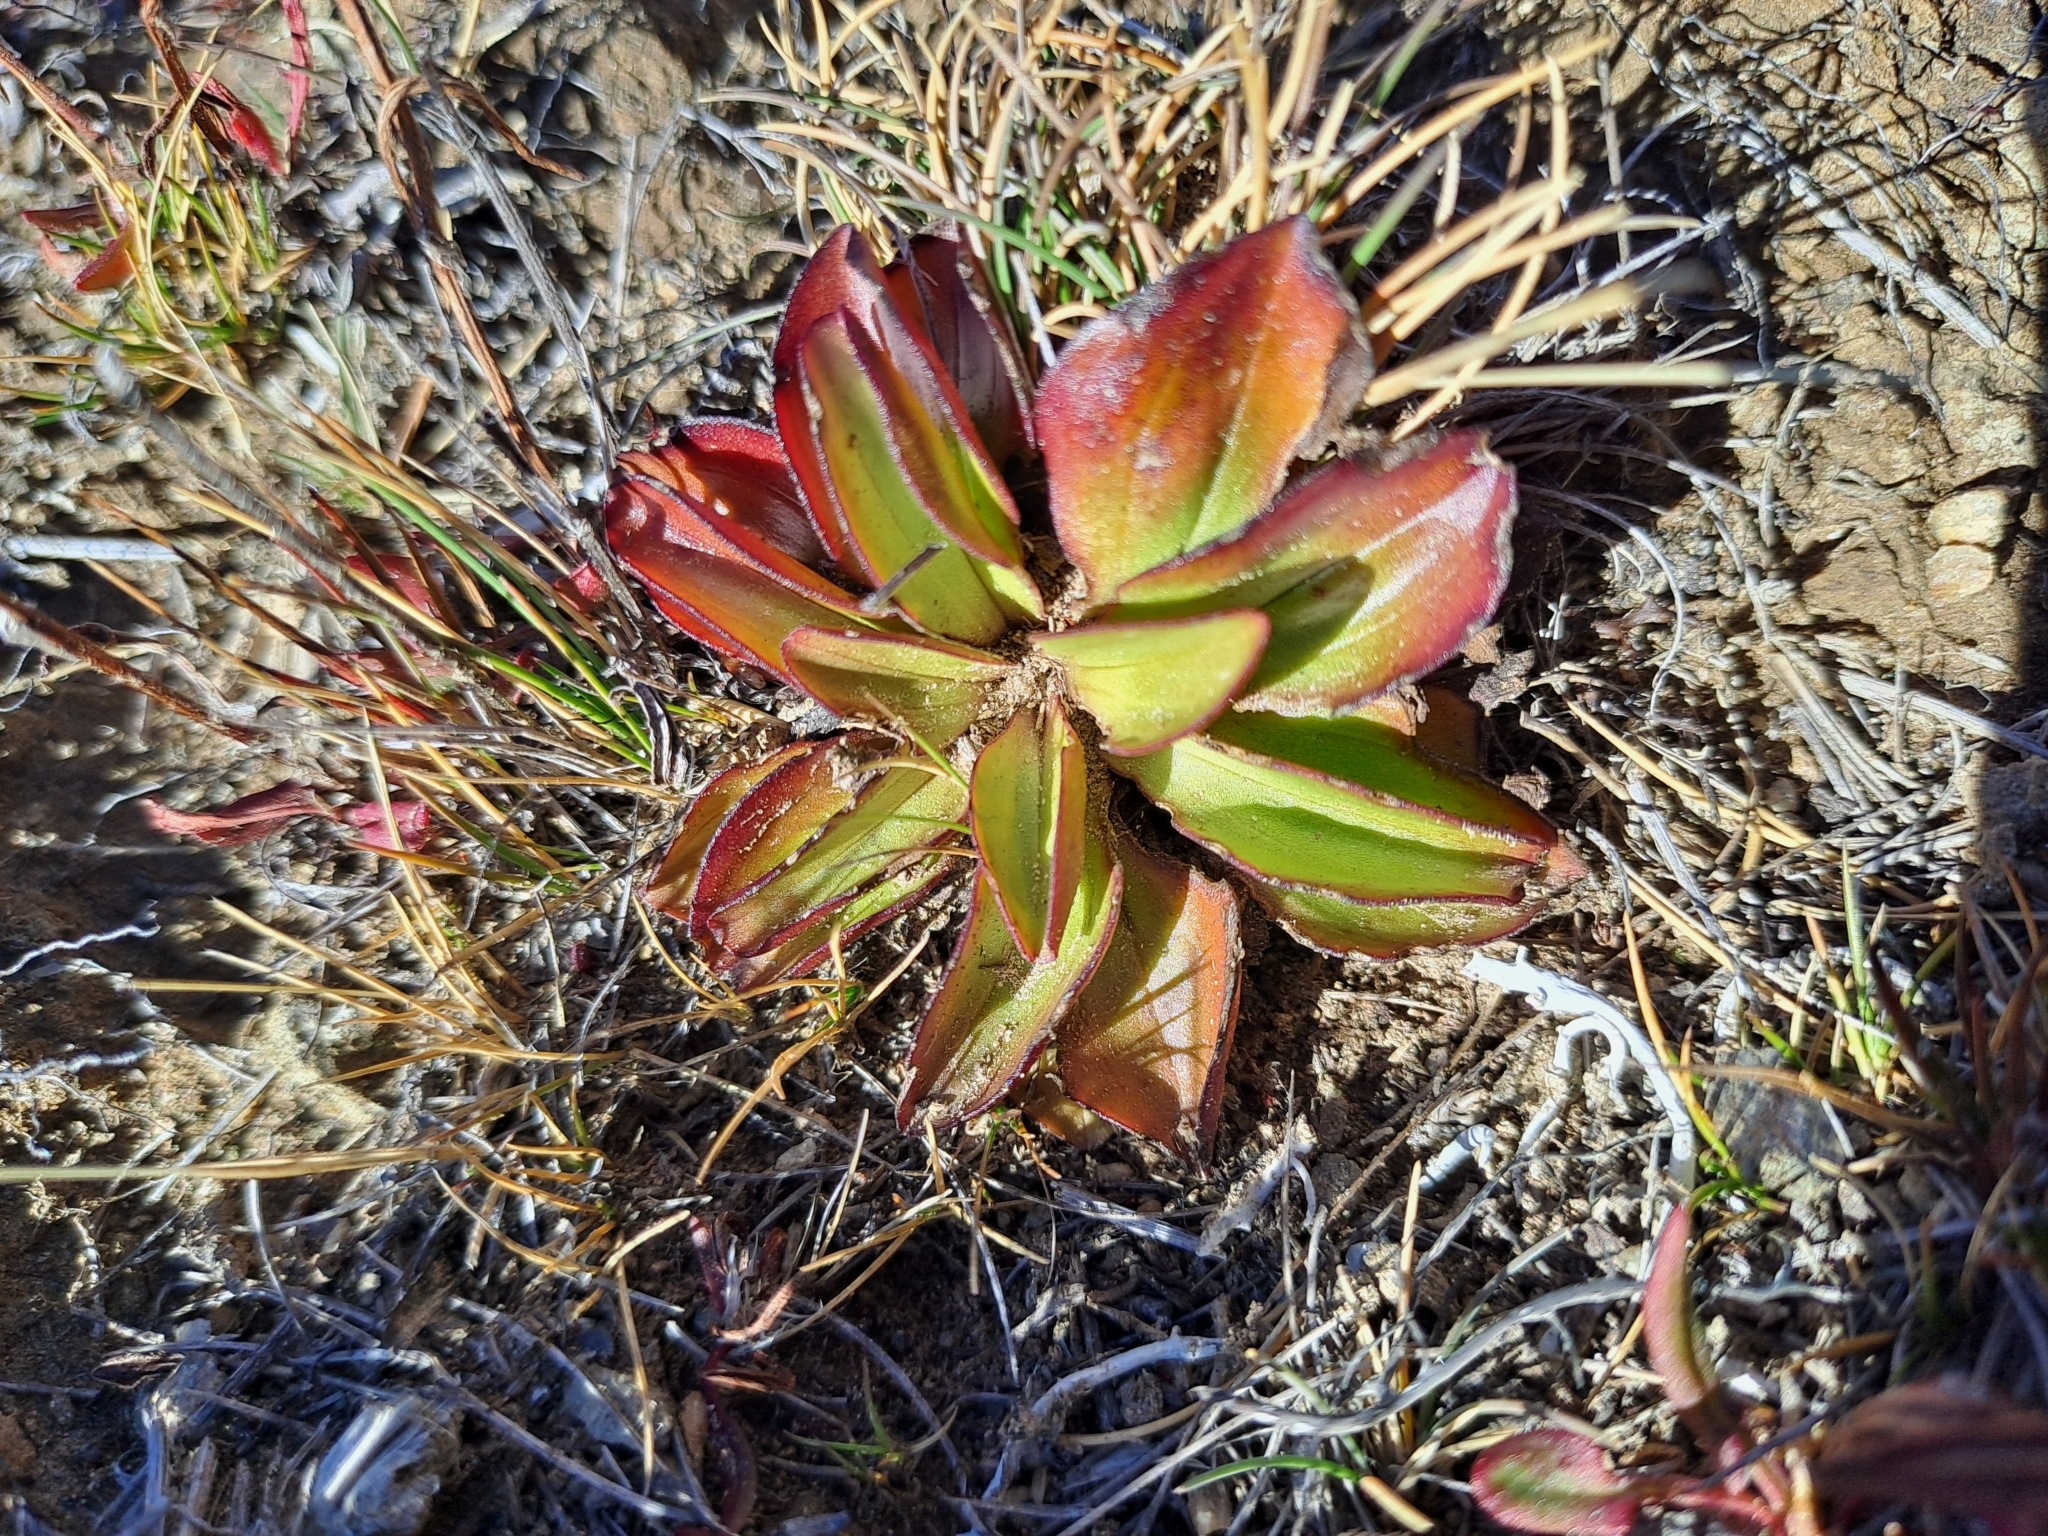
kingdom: Plantae
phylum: Tracheophyta
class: Magnoliopsida
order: Gentianales
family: Gentianaceae
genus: Gentianella
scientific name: Gentianella divisa
